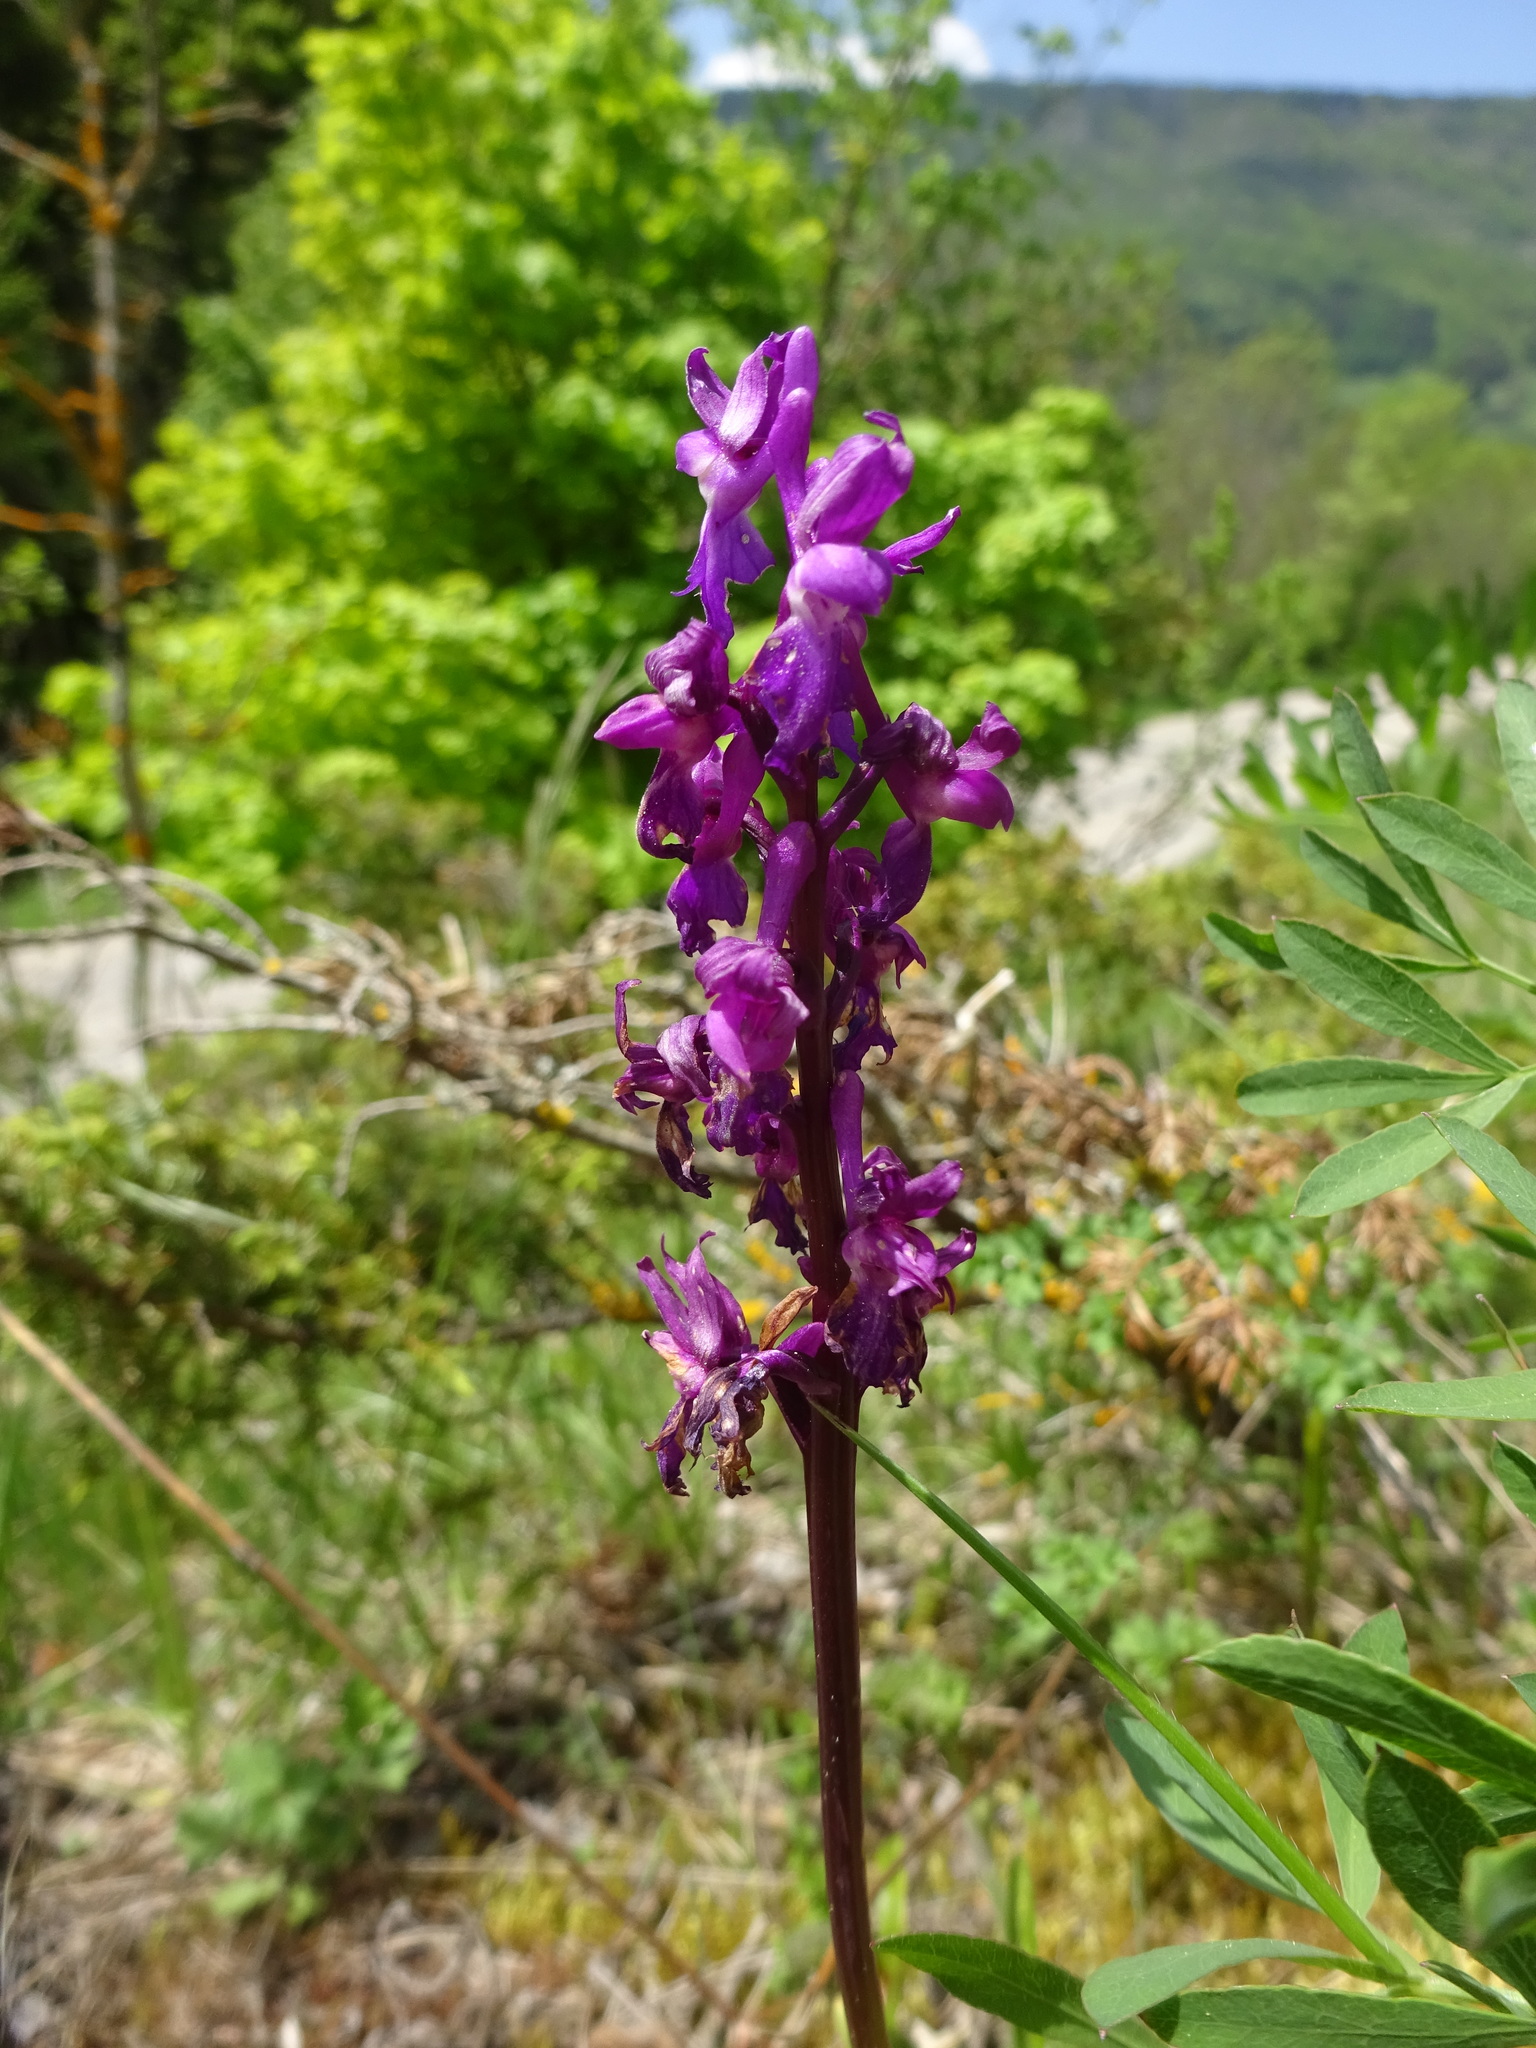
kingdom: Plantae
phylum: Tracheophyta
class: Liliopsida
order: Asparagales
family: Orchidaceae
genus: Orchis
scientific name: Orchis mascula
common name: Early-purple orchid
